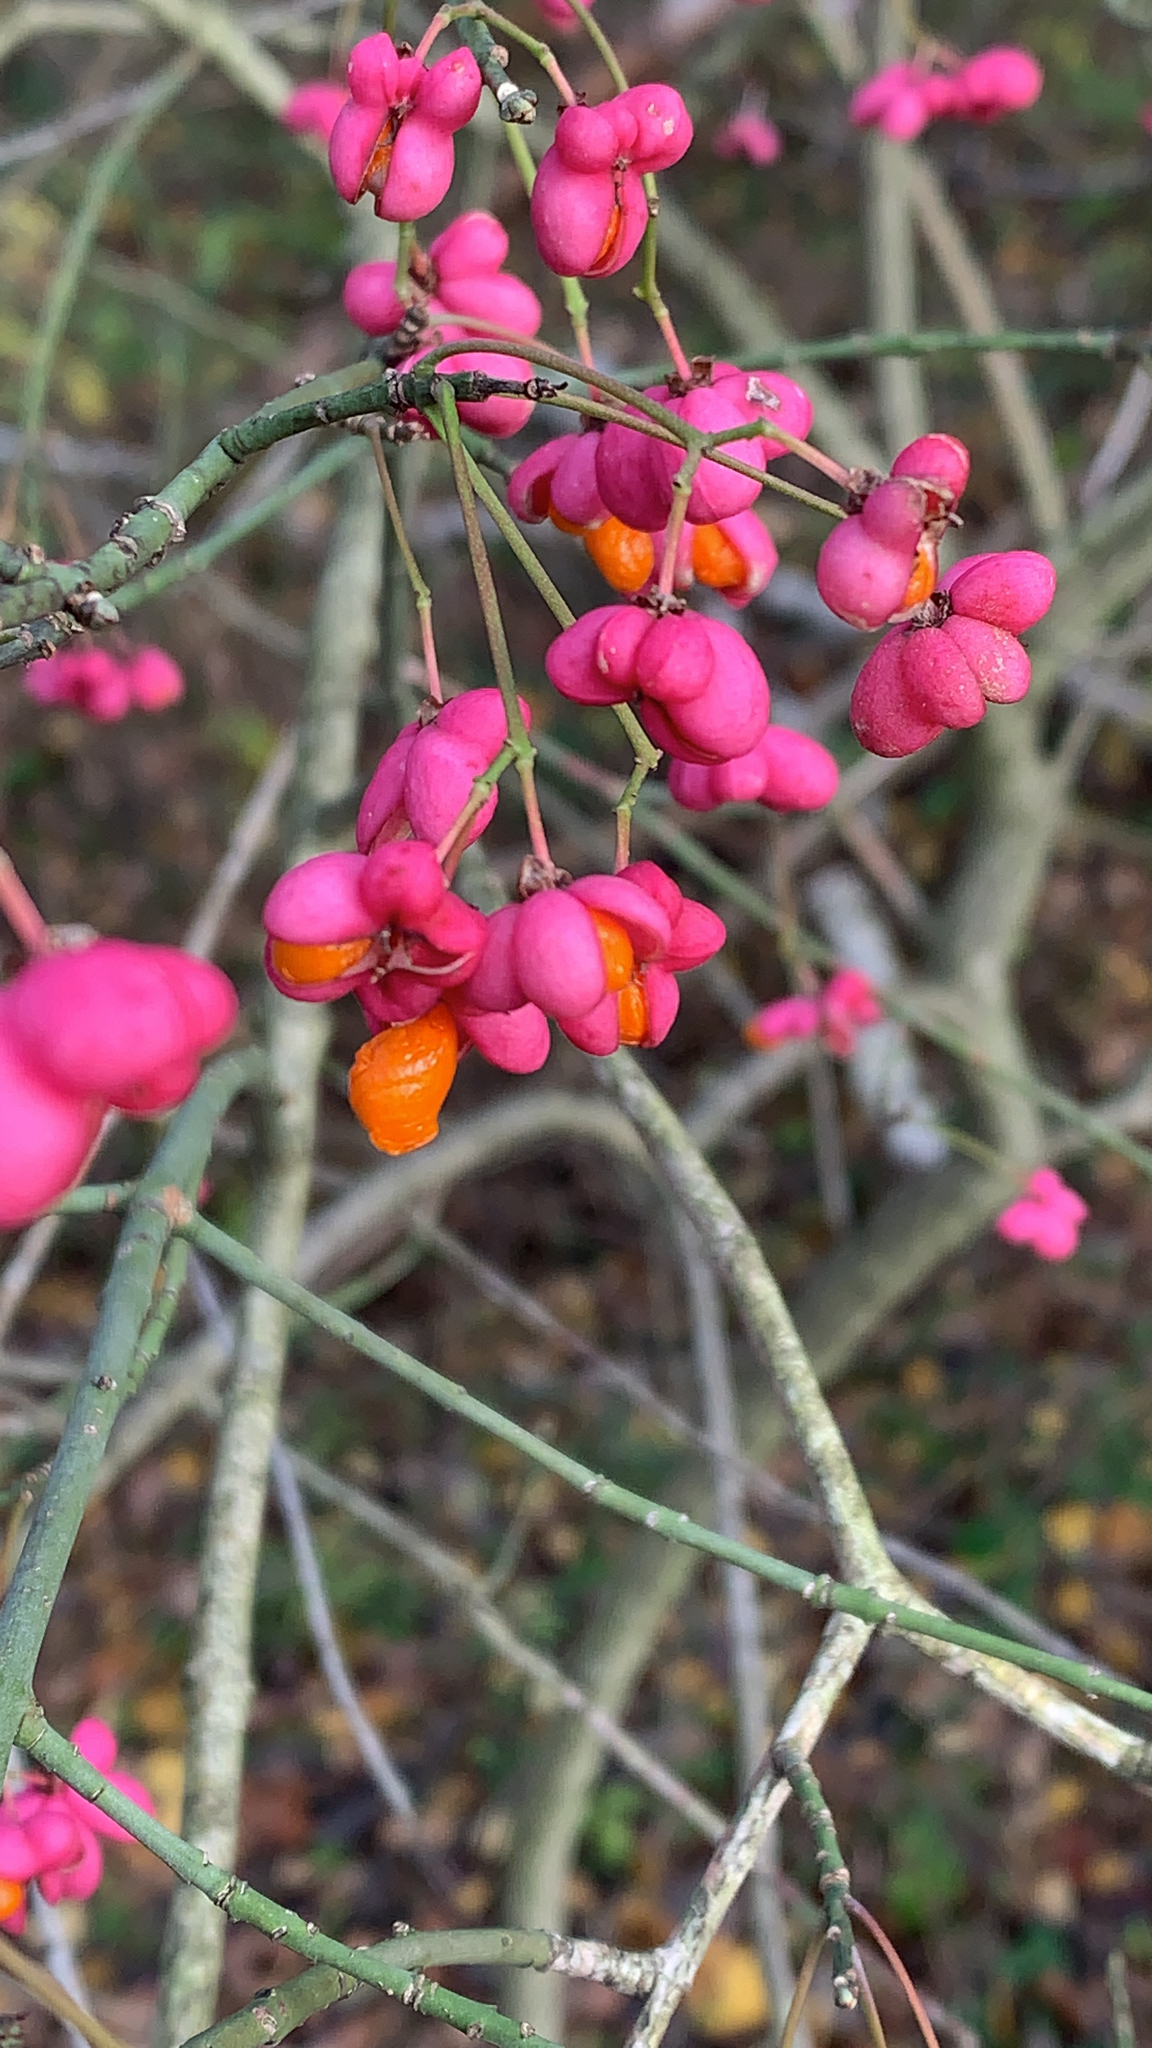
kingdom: Plantae
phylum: Tracheophyta
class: Magnoliopsida
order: Celastrales
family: Celastraceae
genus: Euonymus
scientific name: Euonymus europaeus
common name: Spindle
